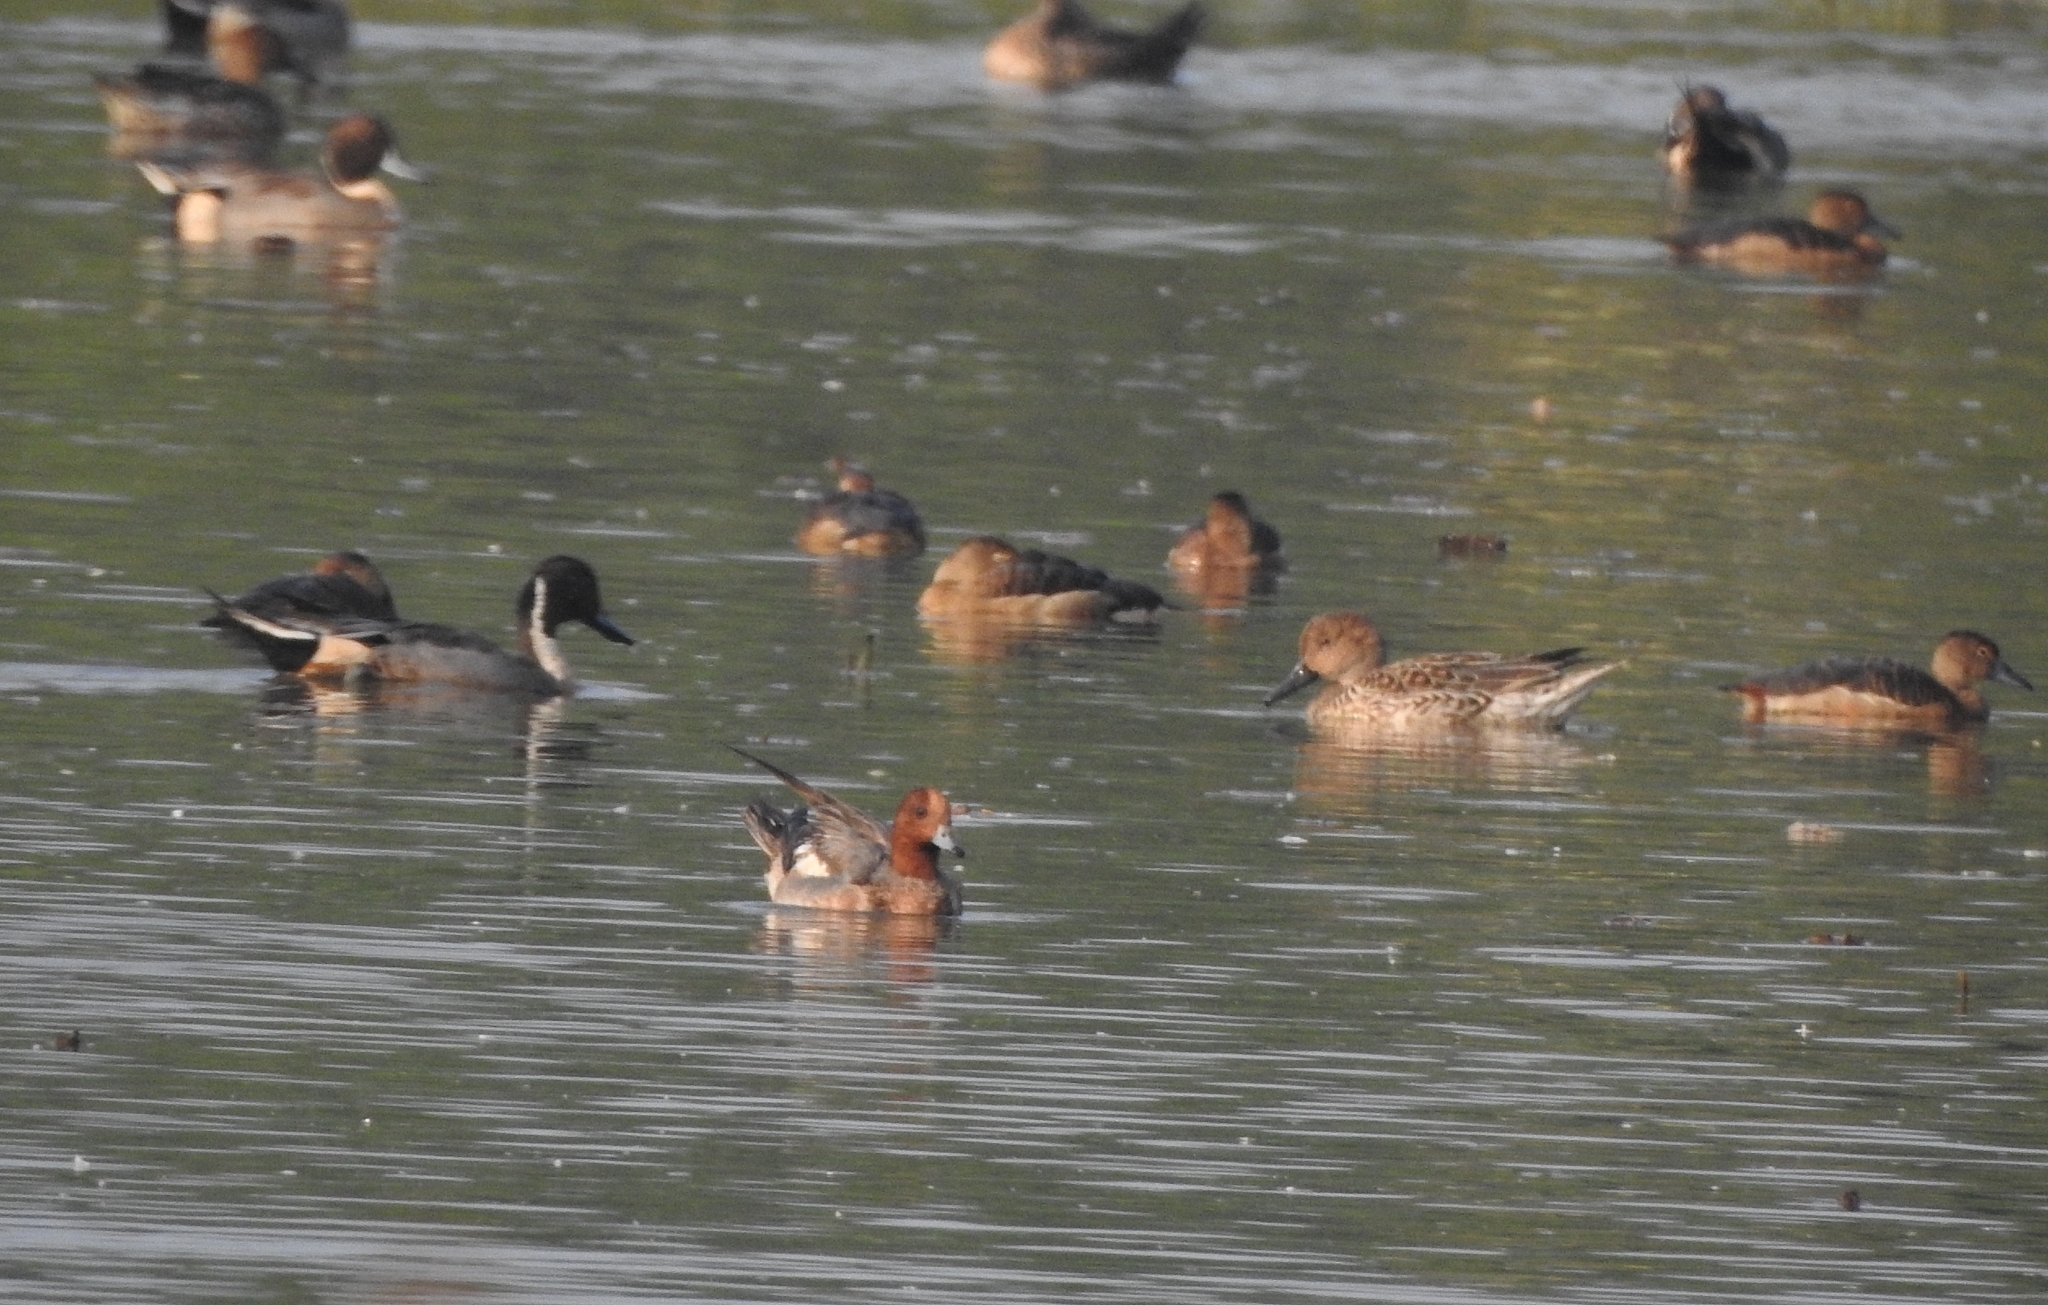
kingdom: Animalia
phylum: Chordata
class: Aves
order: Anseriformes
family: Anatidae
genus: Anas
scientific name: Anas acuta
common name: Northern pintail
